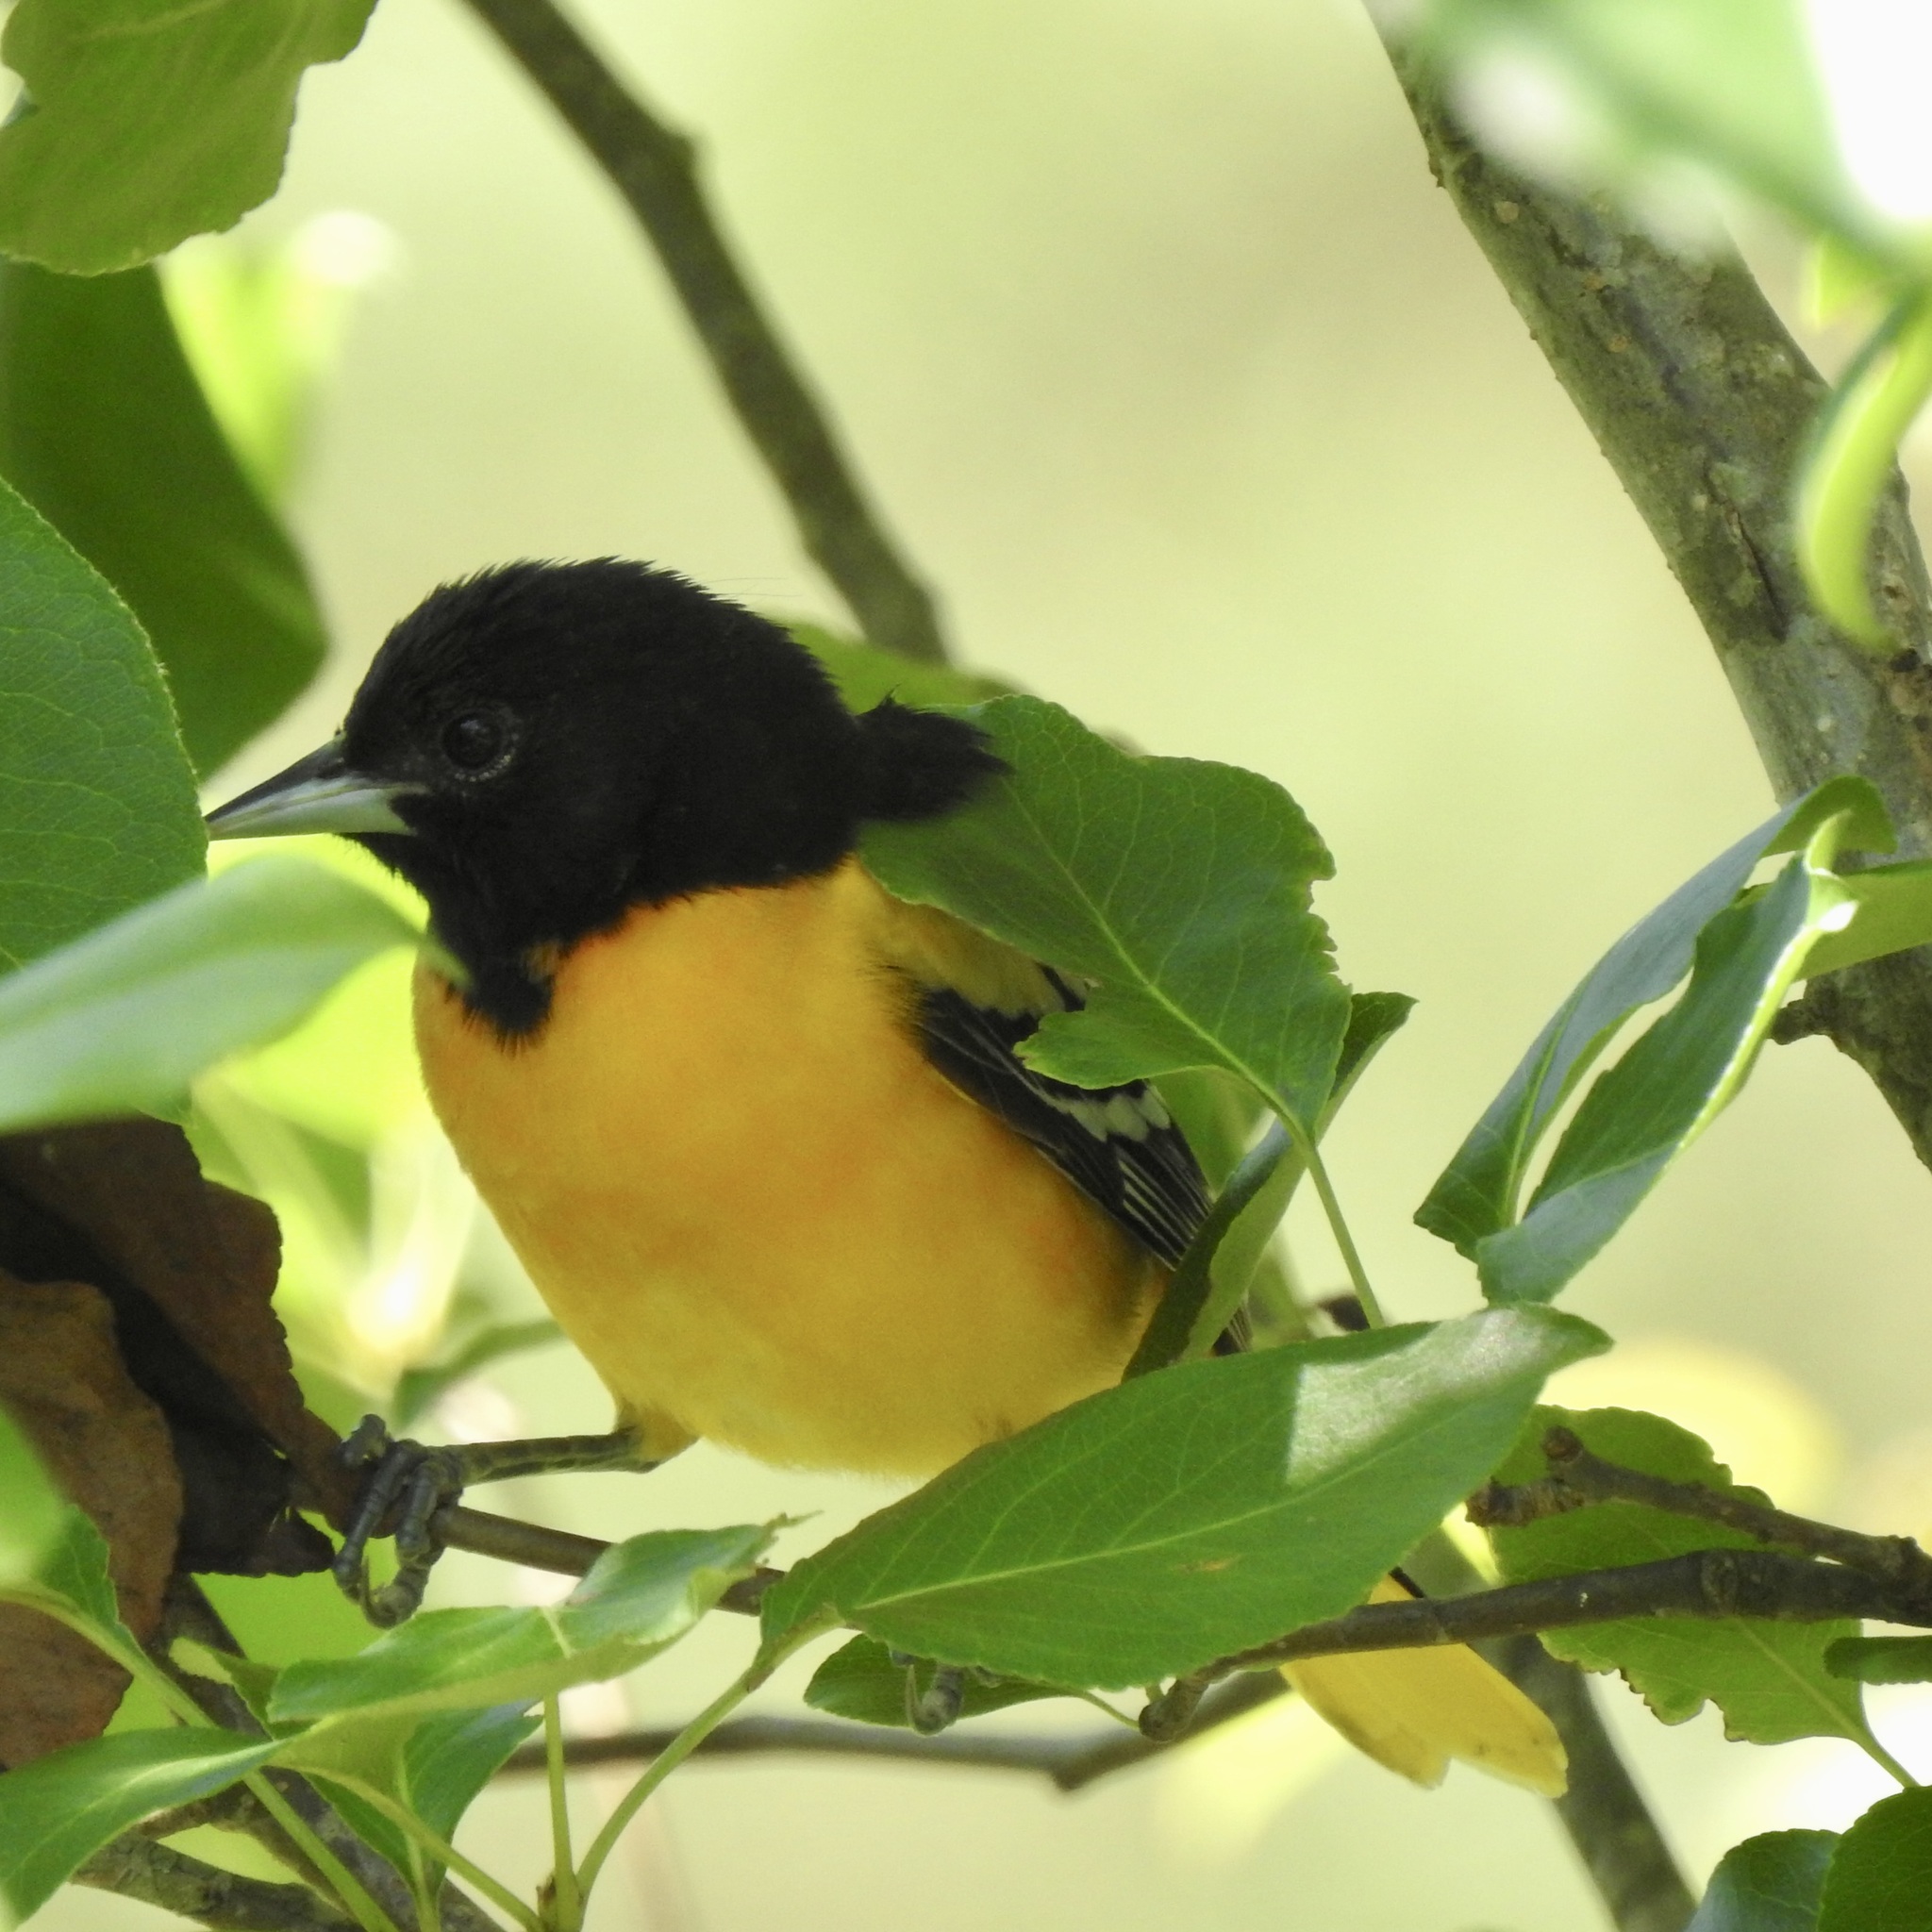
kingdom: Animalia
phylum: Chordata
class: Aves
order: Passeriformes
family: Icteridae
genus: Icterus
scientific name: Icterus galbula
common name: Baltimore oriole
